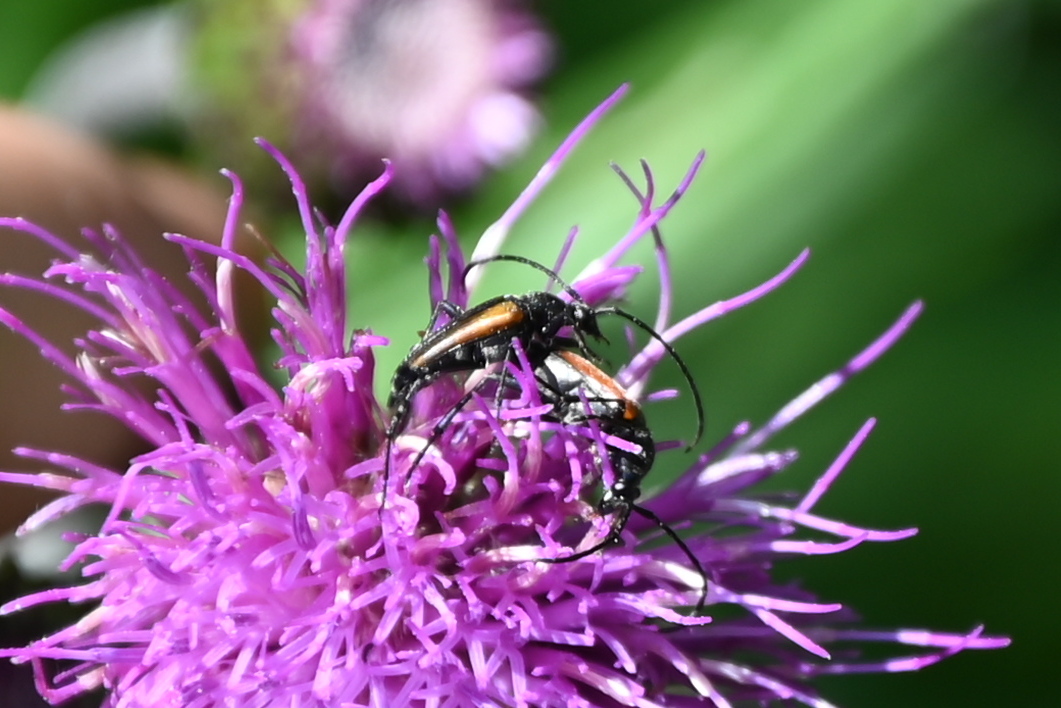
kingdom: Animalia
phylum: Arthropoda
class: Insecta
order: Coleoptera
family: Cerambycidae
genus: Stenurella
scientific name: Stenurella melanura
